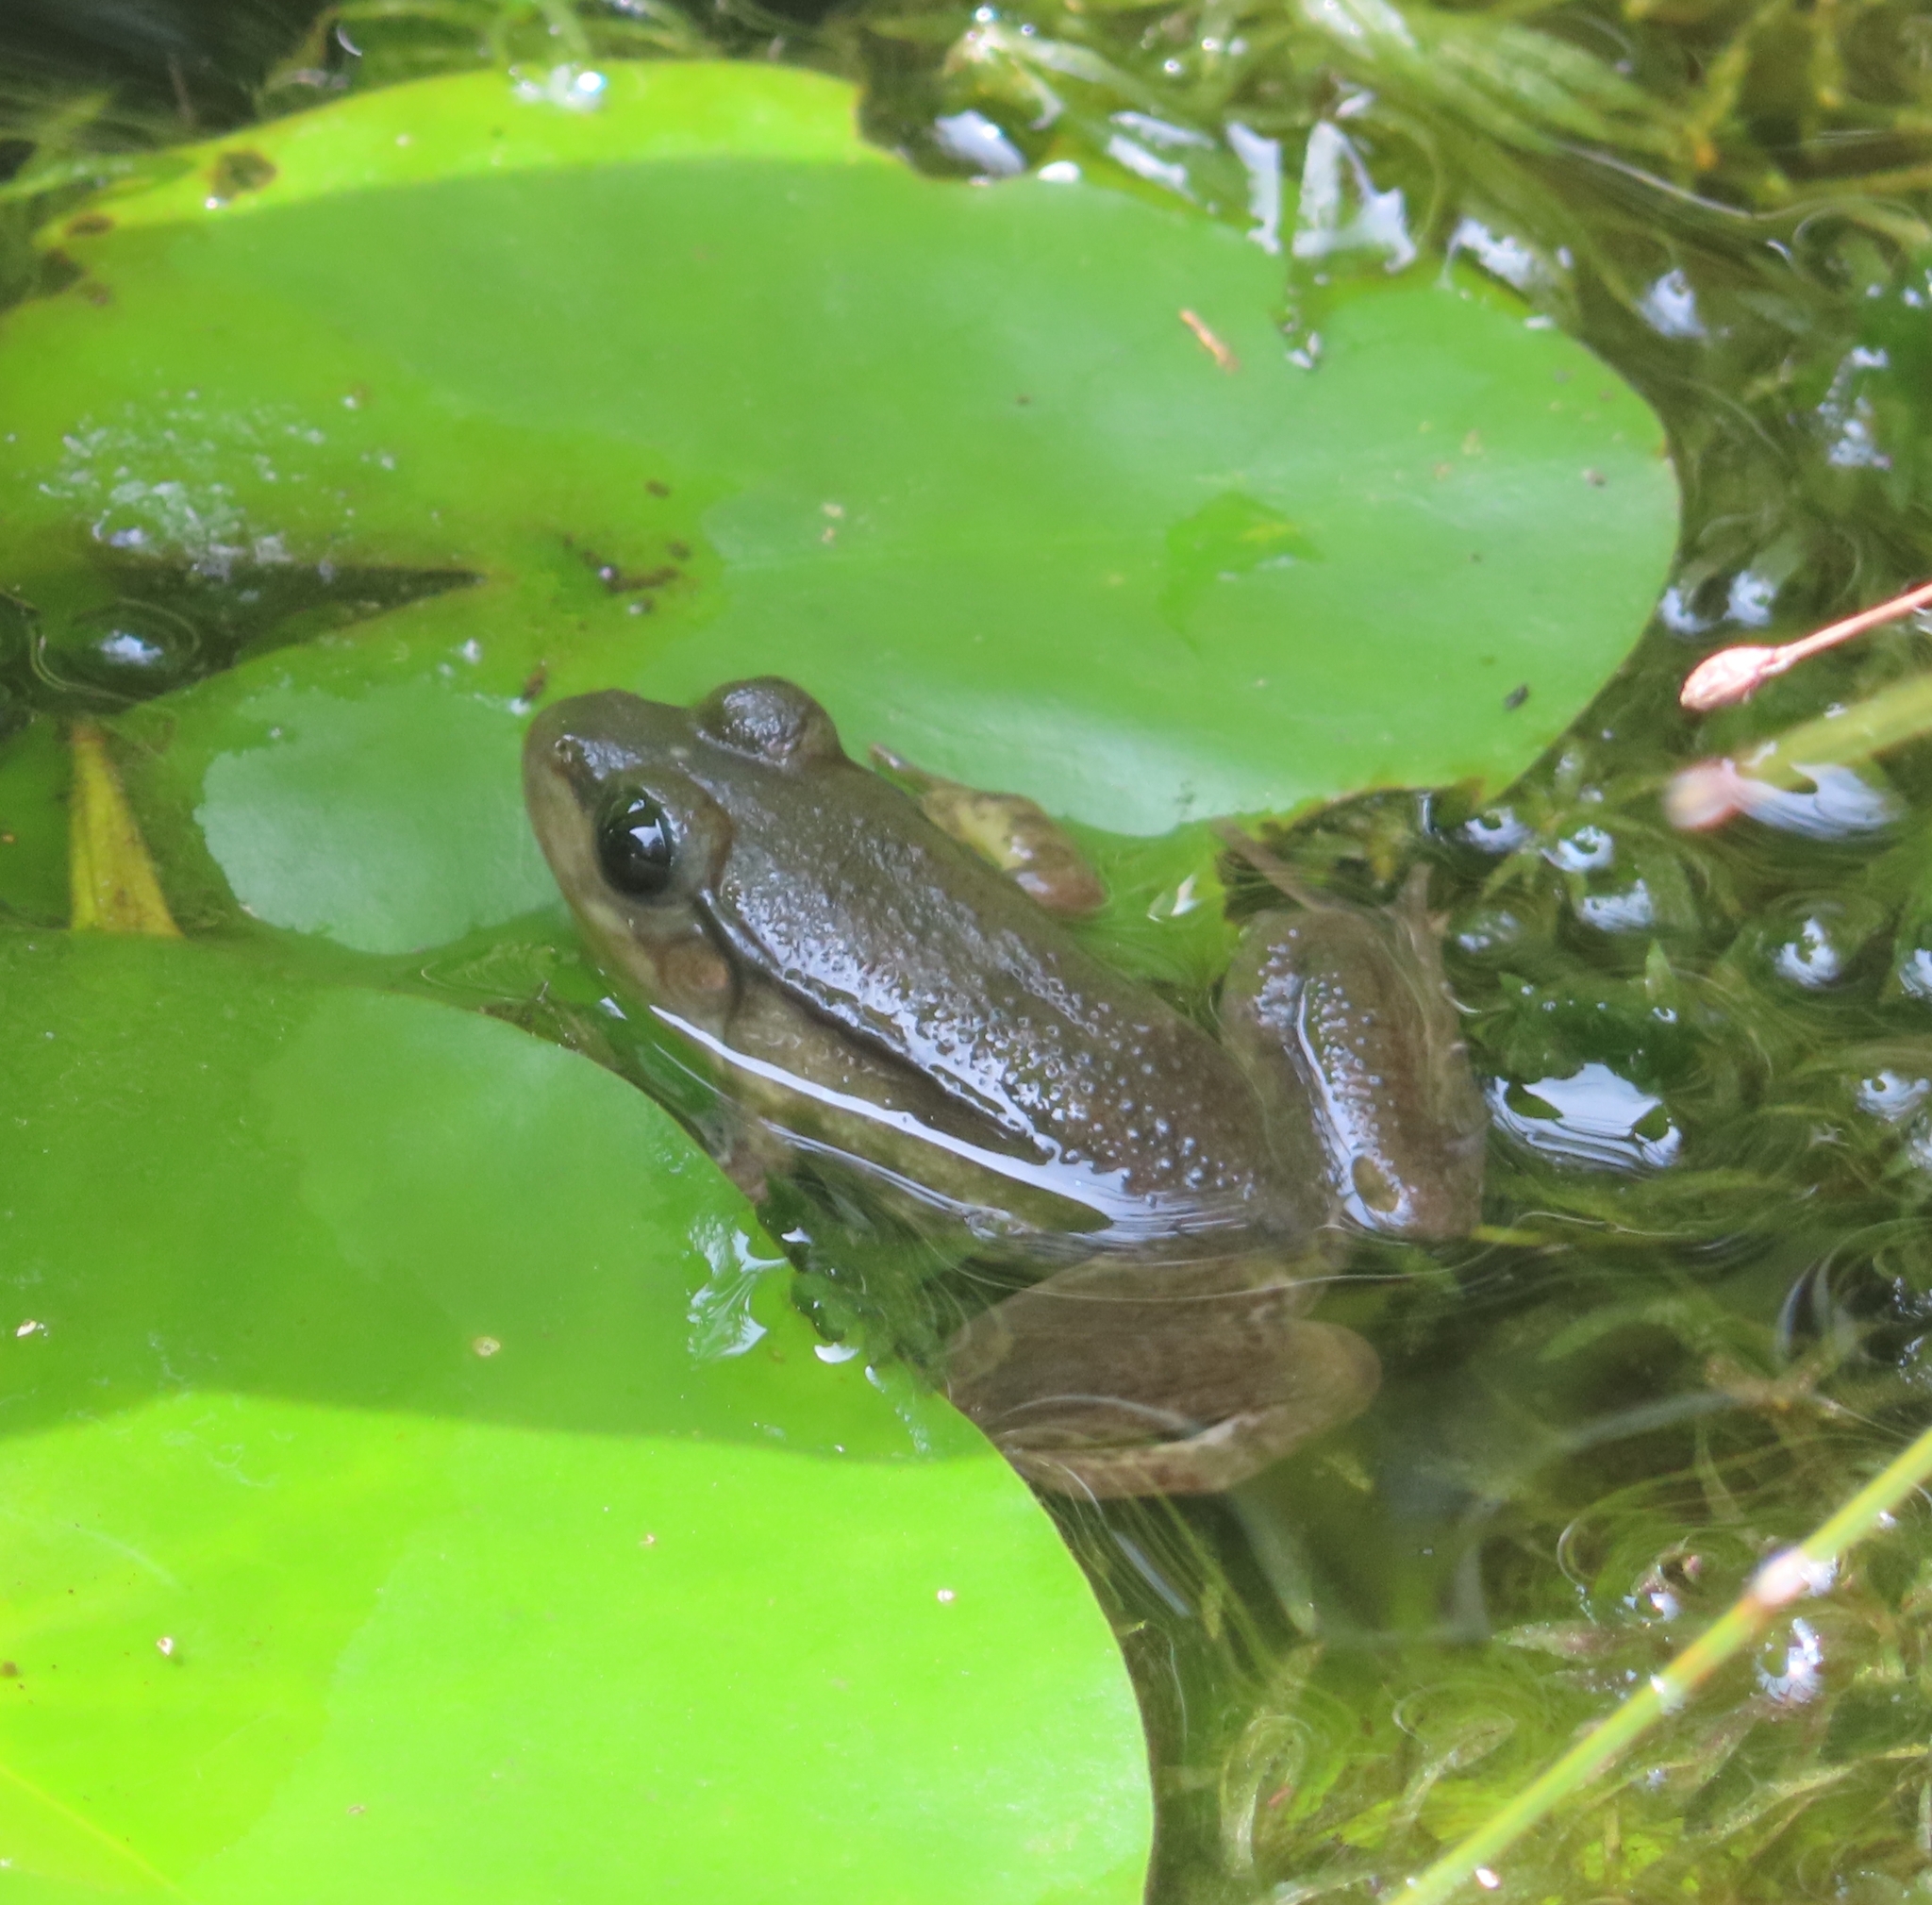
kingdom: Animalia
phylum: Chordata
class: Amphibia
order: Anura
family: Ranidae
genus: Lithobates
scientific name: Lithobates clamitans
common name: Green frog
